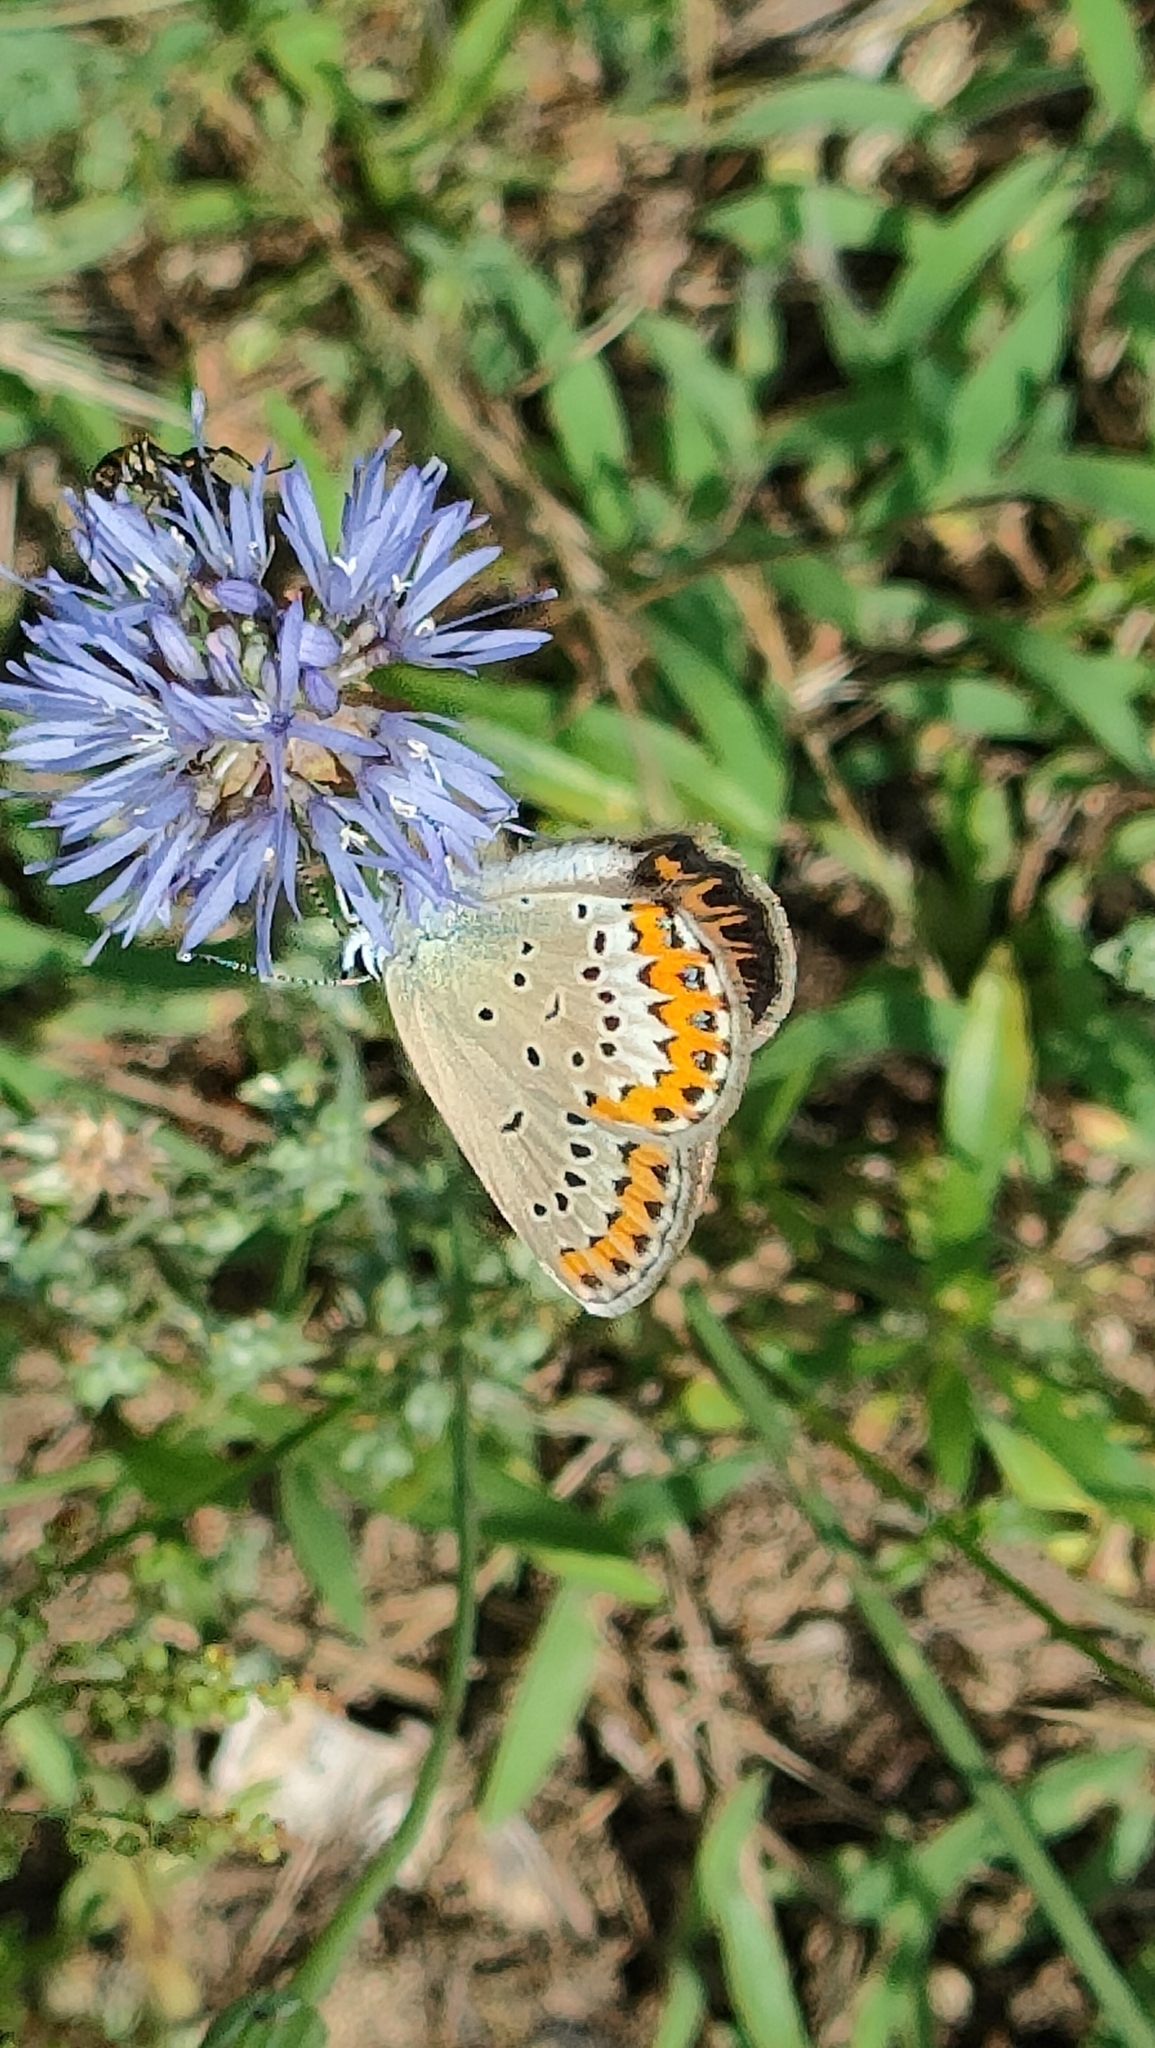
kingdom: Animalia
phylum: Arthropoda
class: Insecta
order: Lepidoptera
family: Lycaenidae
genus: Plebejus
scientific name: Plebejus argyrognomon
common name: Reverdin's blue
